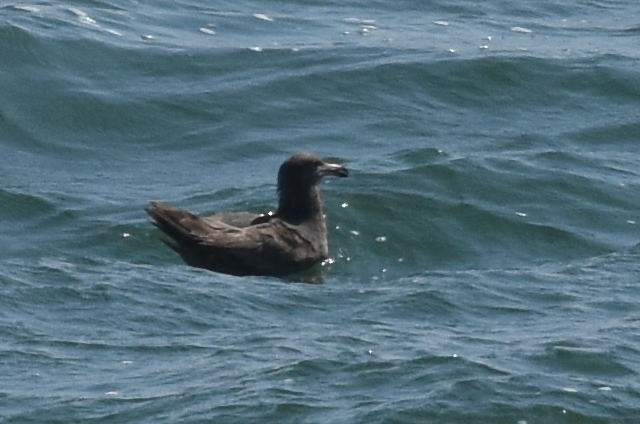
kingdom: Animalia
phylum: Chordata
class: Aves
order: Charadriiformes
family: Laridae
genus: Larus
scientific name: Larus heermanni
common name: Heermann's gull
